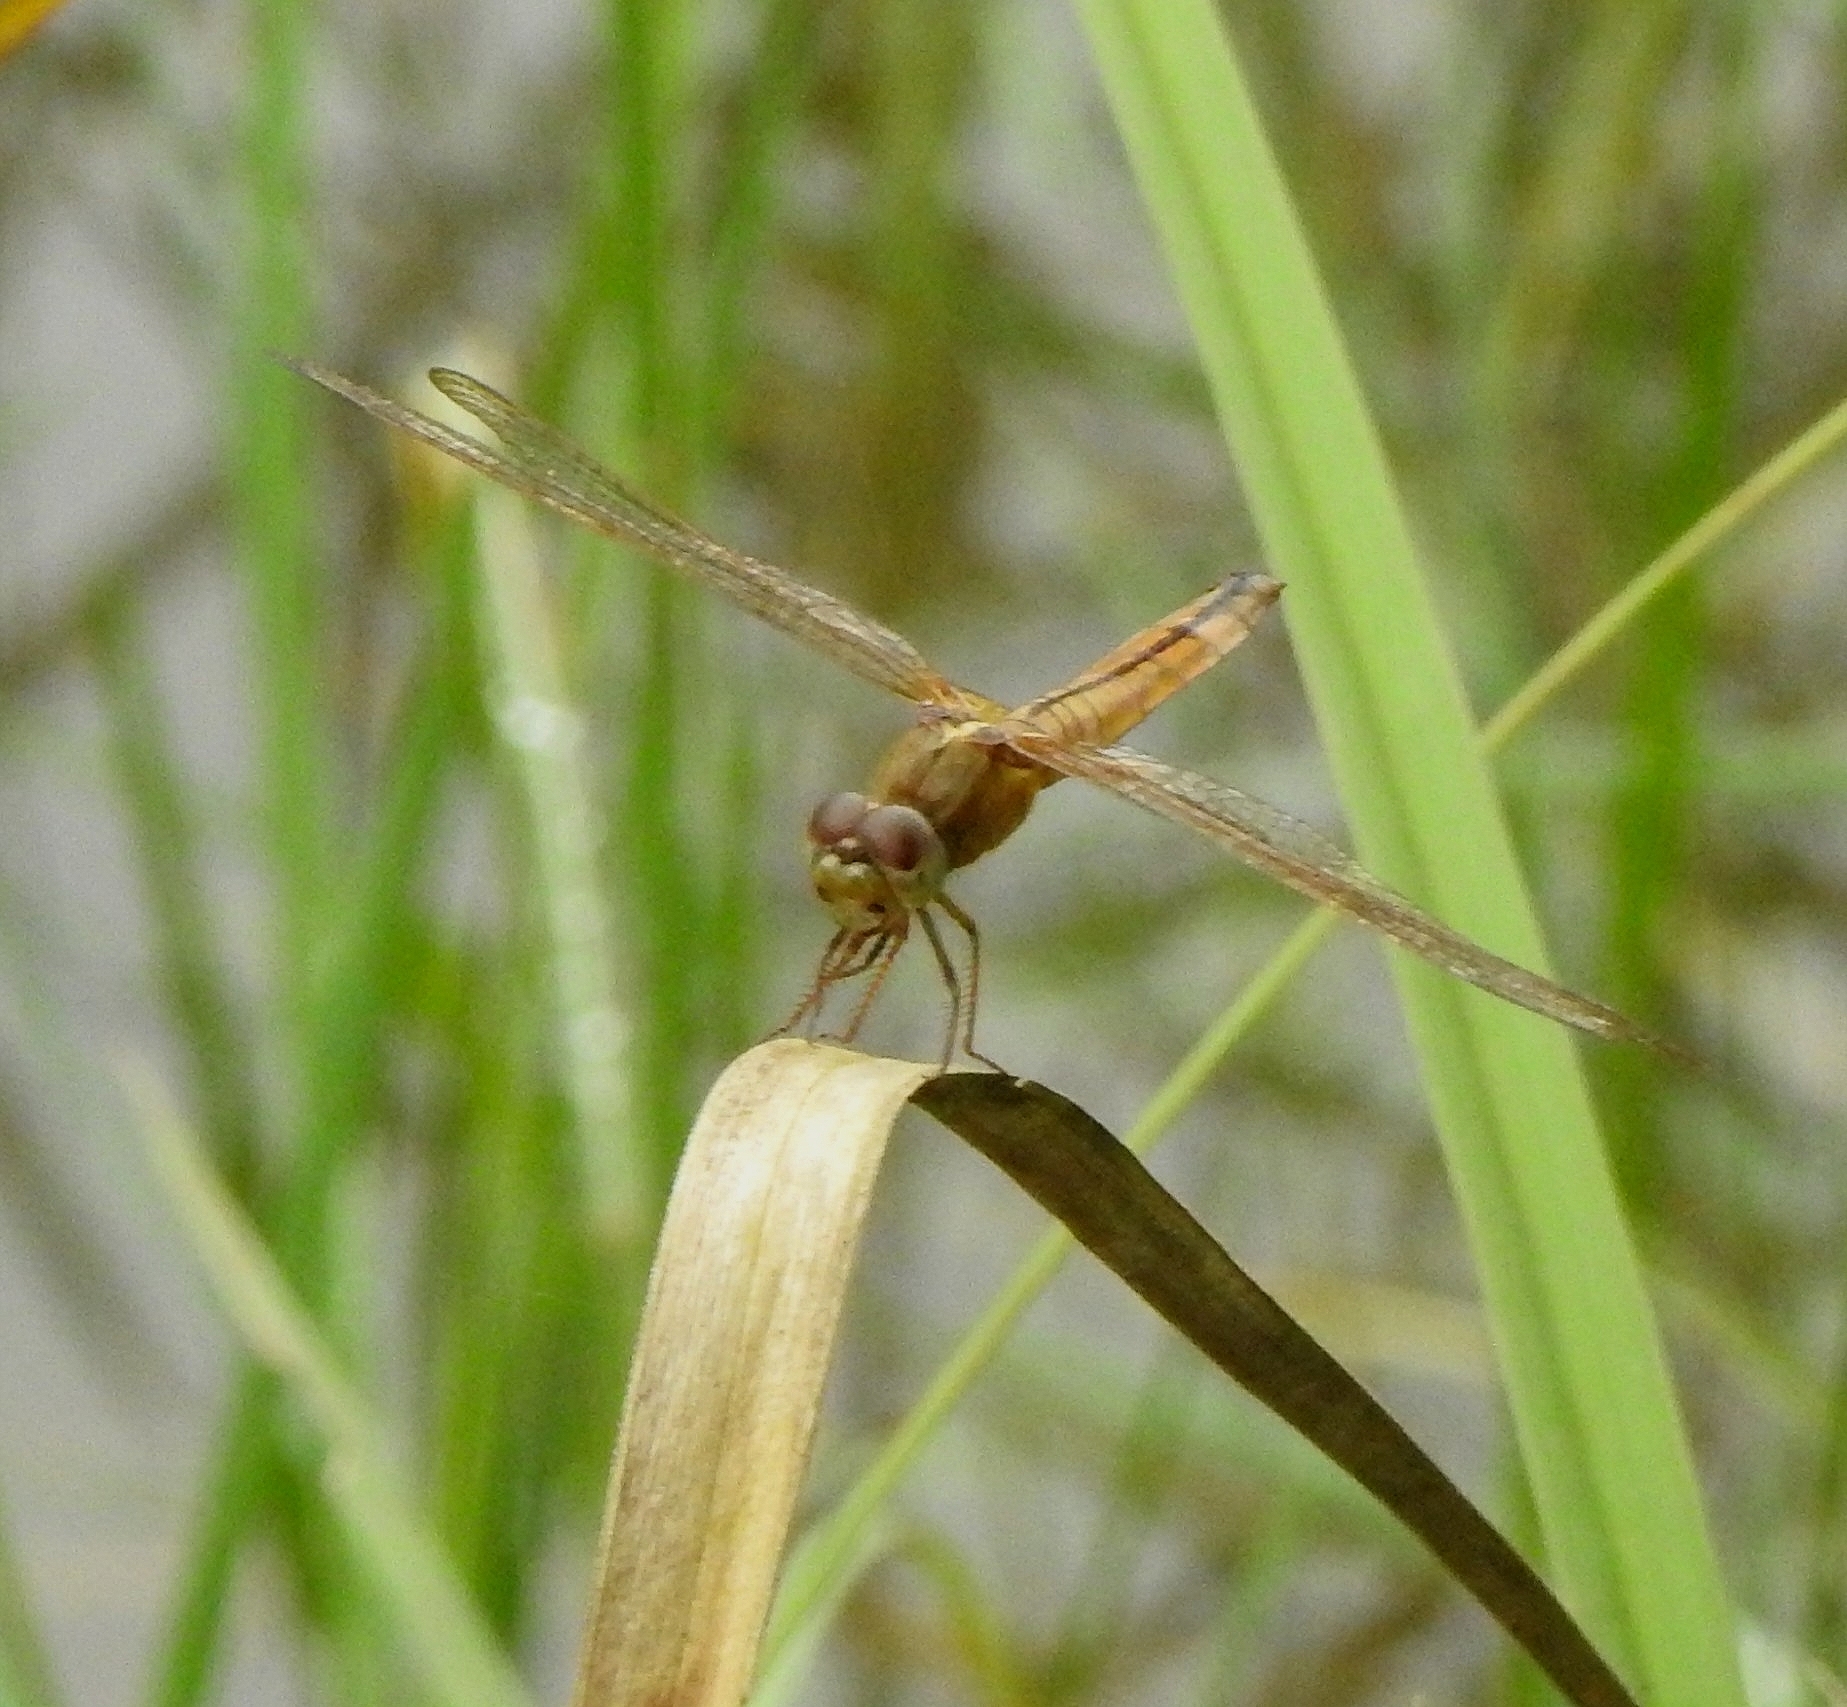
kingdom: Animalia
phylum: Arthropoda
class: Insecta
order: Odonata
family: Libellulidae
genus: Crocothemis
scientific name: Crocothemis servilia
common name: Scarlet skimmer
